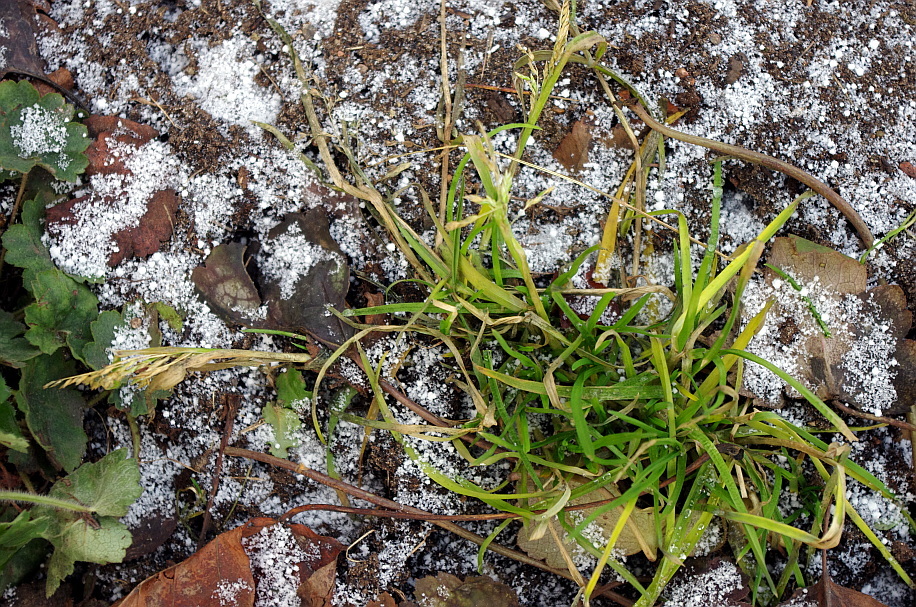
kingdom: Plantae
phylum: Tracheophyta
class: Liliopsida
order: Poales
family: Poaceae
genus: Poa
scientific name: Poa annua
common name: Annual bluegrass
